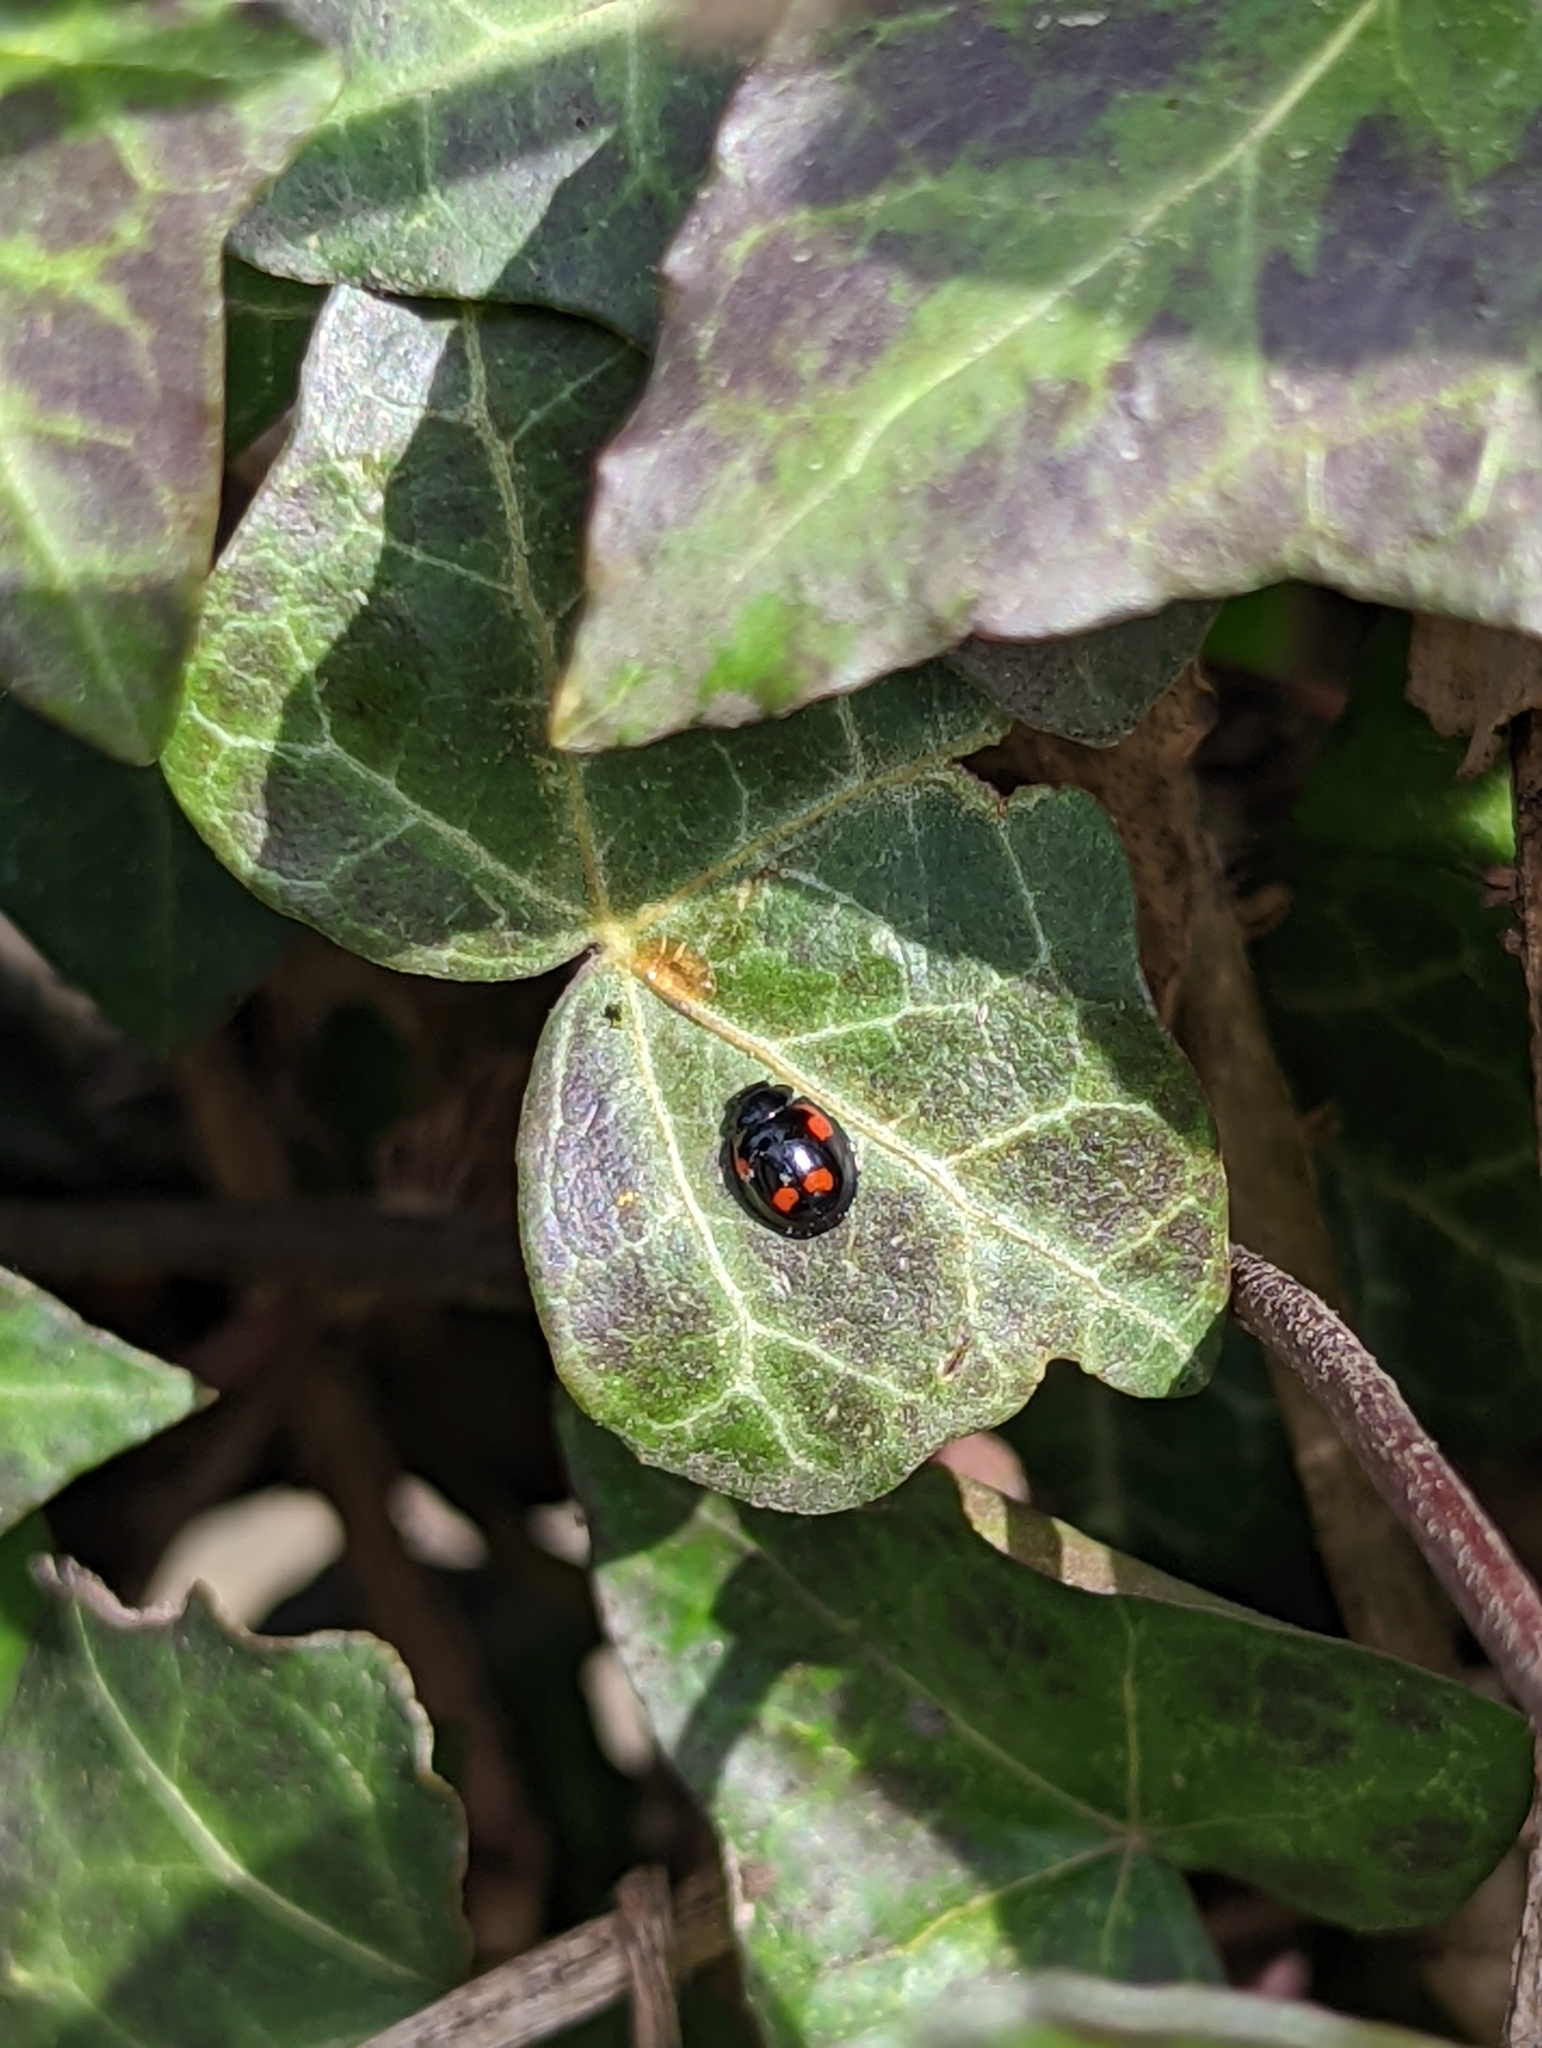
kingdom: Animalia
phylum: Arthropoda
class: Insecta
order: Coleoptera
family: Coccinellidae
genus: Brumus
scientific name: Brumus quadripustulatus
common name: Ladybird beetle
